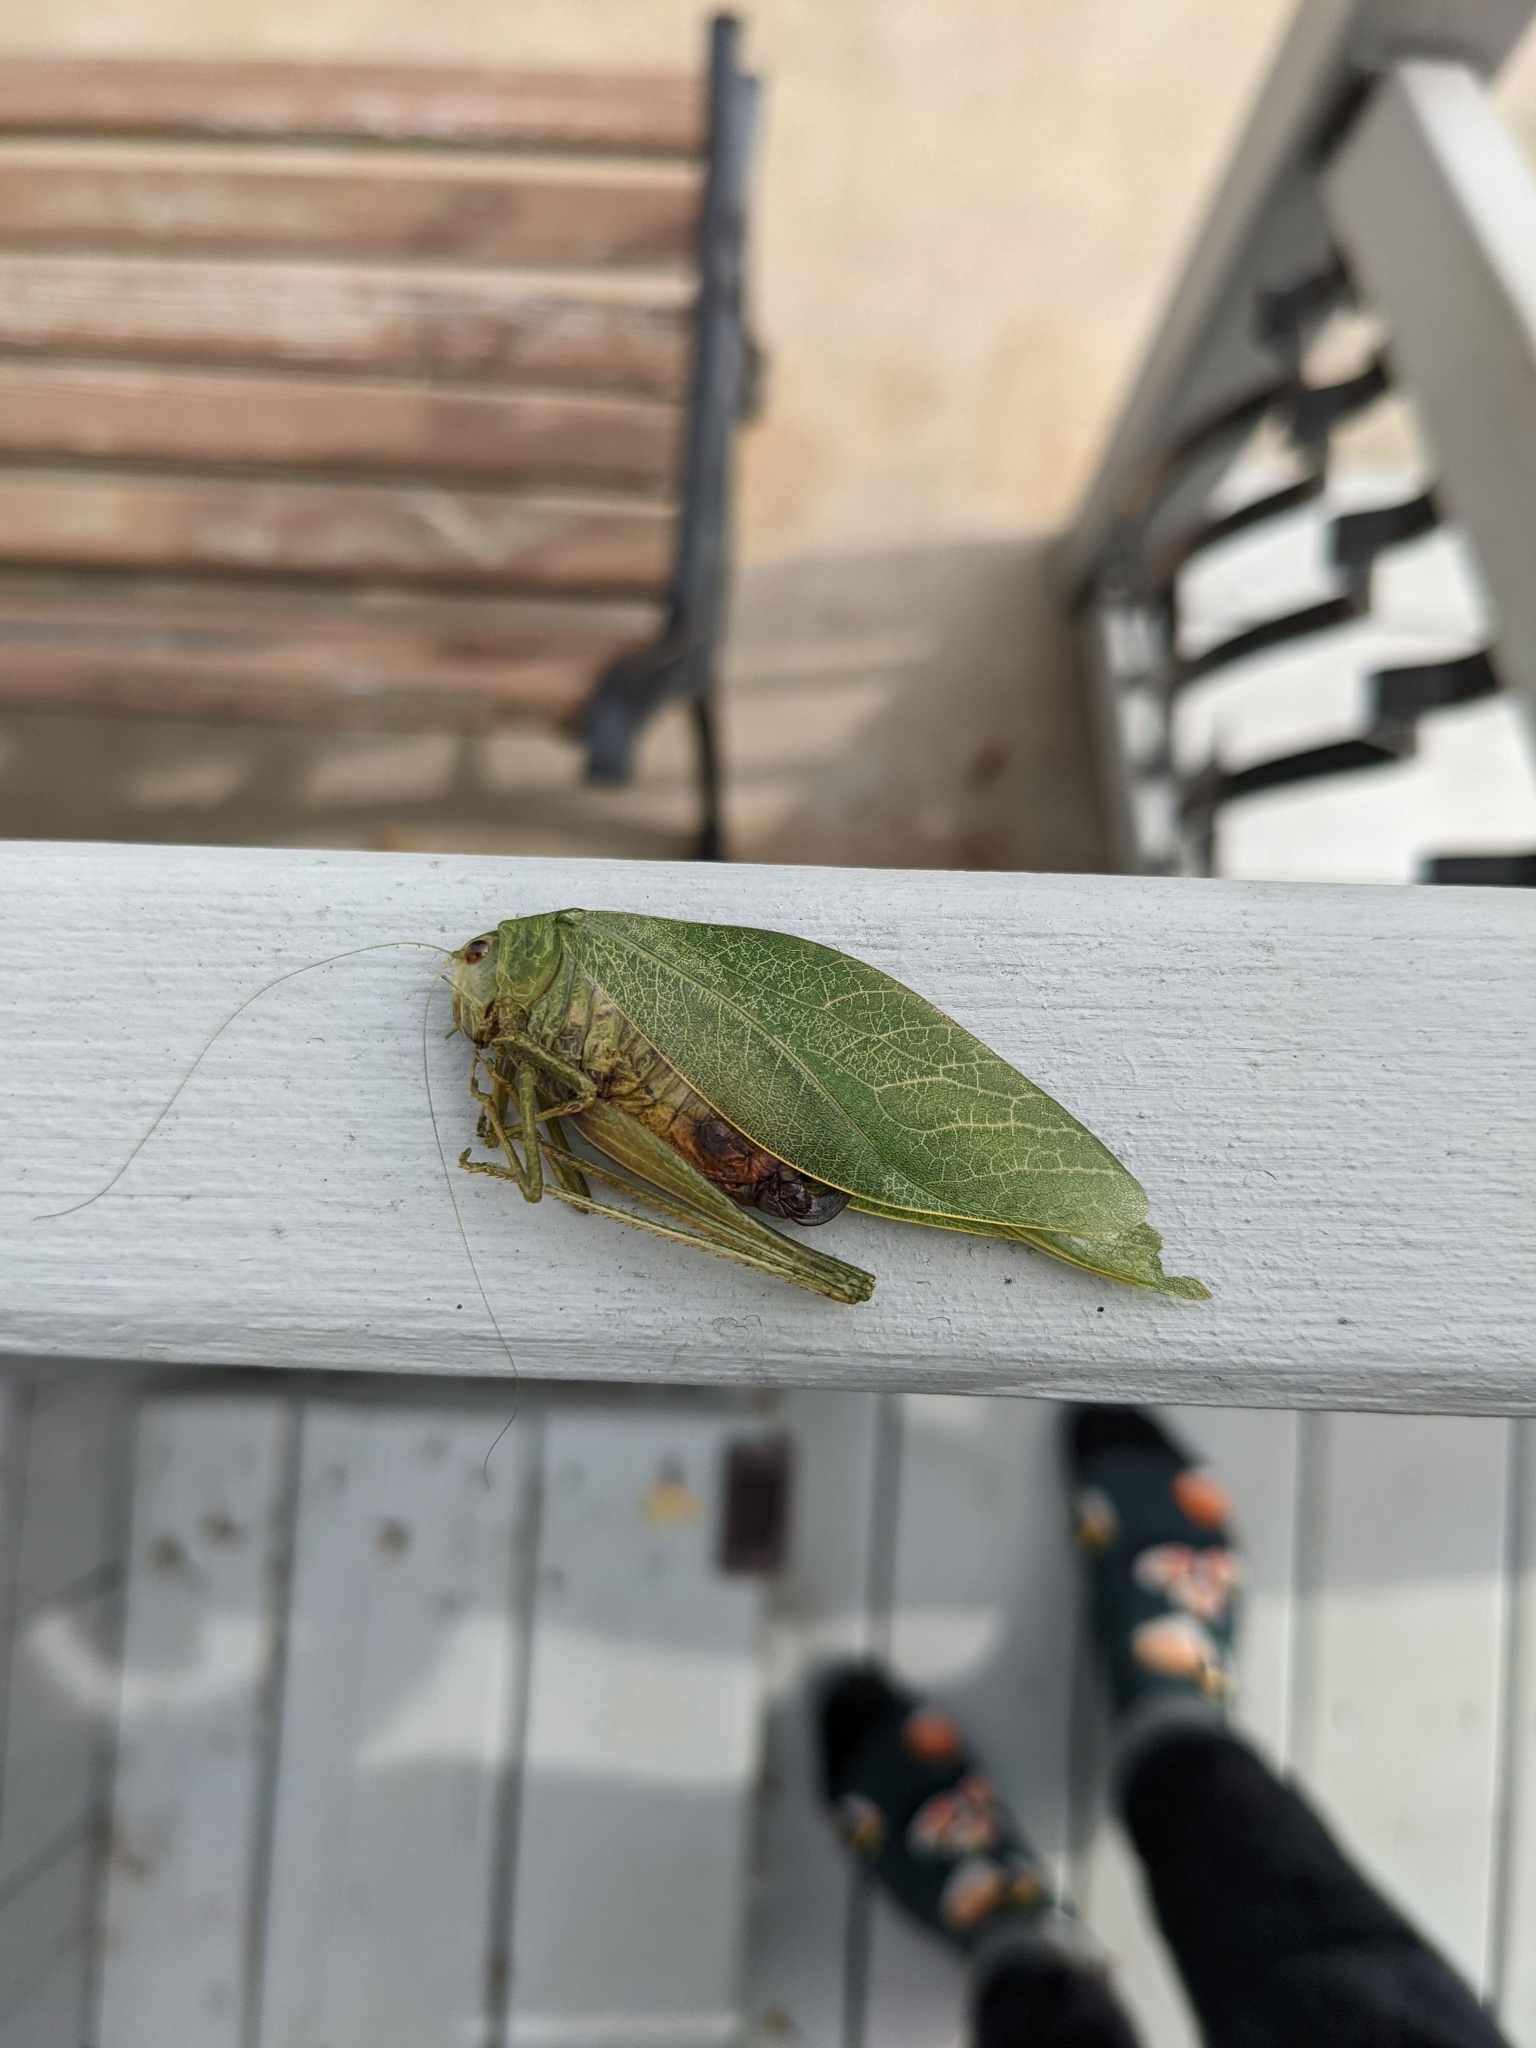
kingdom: Animalia
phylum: Arthropoda
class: Insecta
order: Orthoptera
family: Tettigoniidae
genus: Microcentrum
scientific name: Microcentrum rhombifolium
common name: Broad-winged katydid
